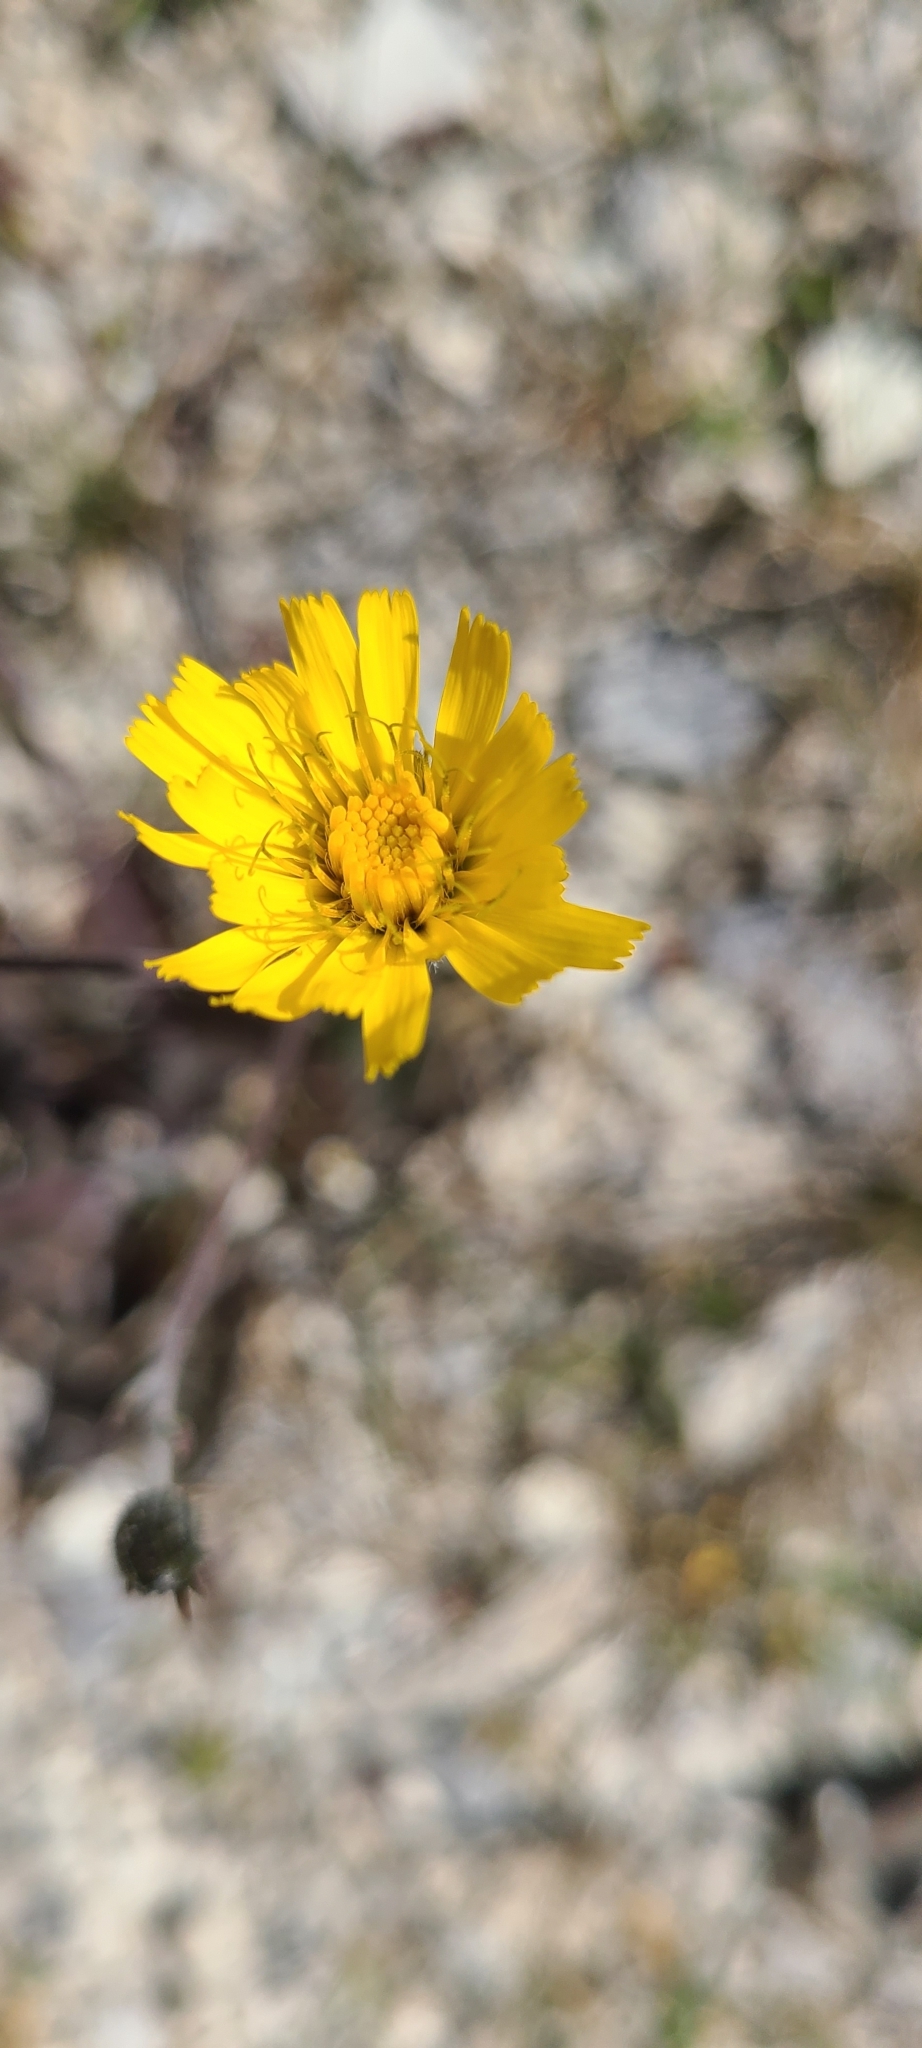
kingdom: Plantae
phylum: Tracheophyta
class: Magnoliopsida
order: Asterales
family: Asteraceae
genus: Hieracium
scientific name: Hieracium lepidulum
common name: Irregular-toothed hawkweed
